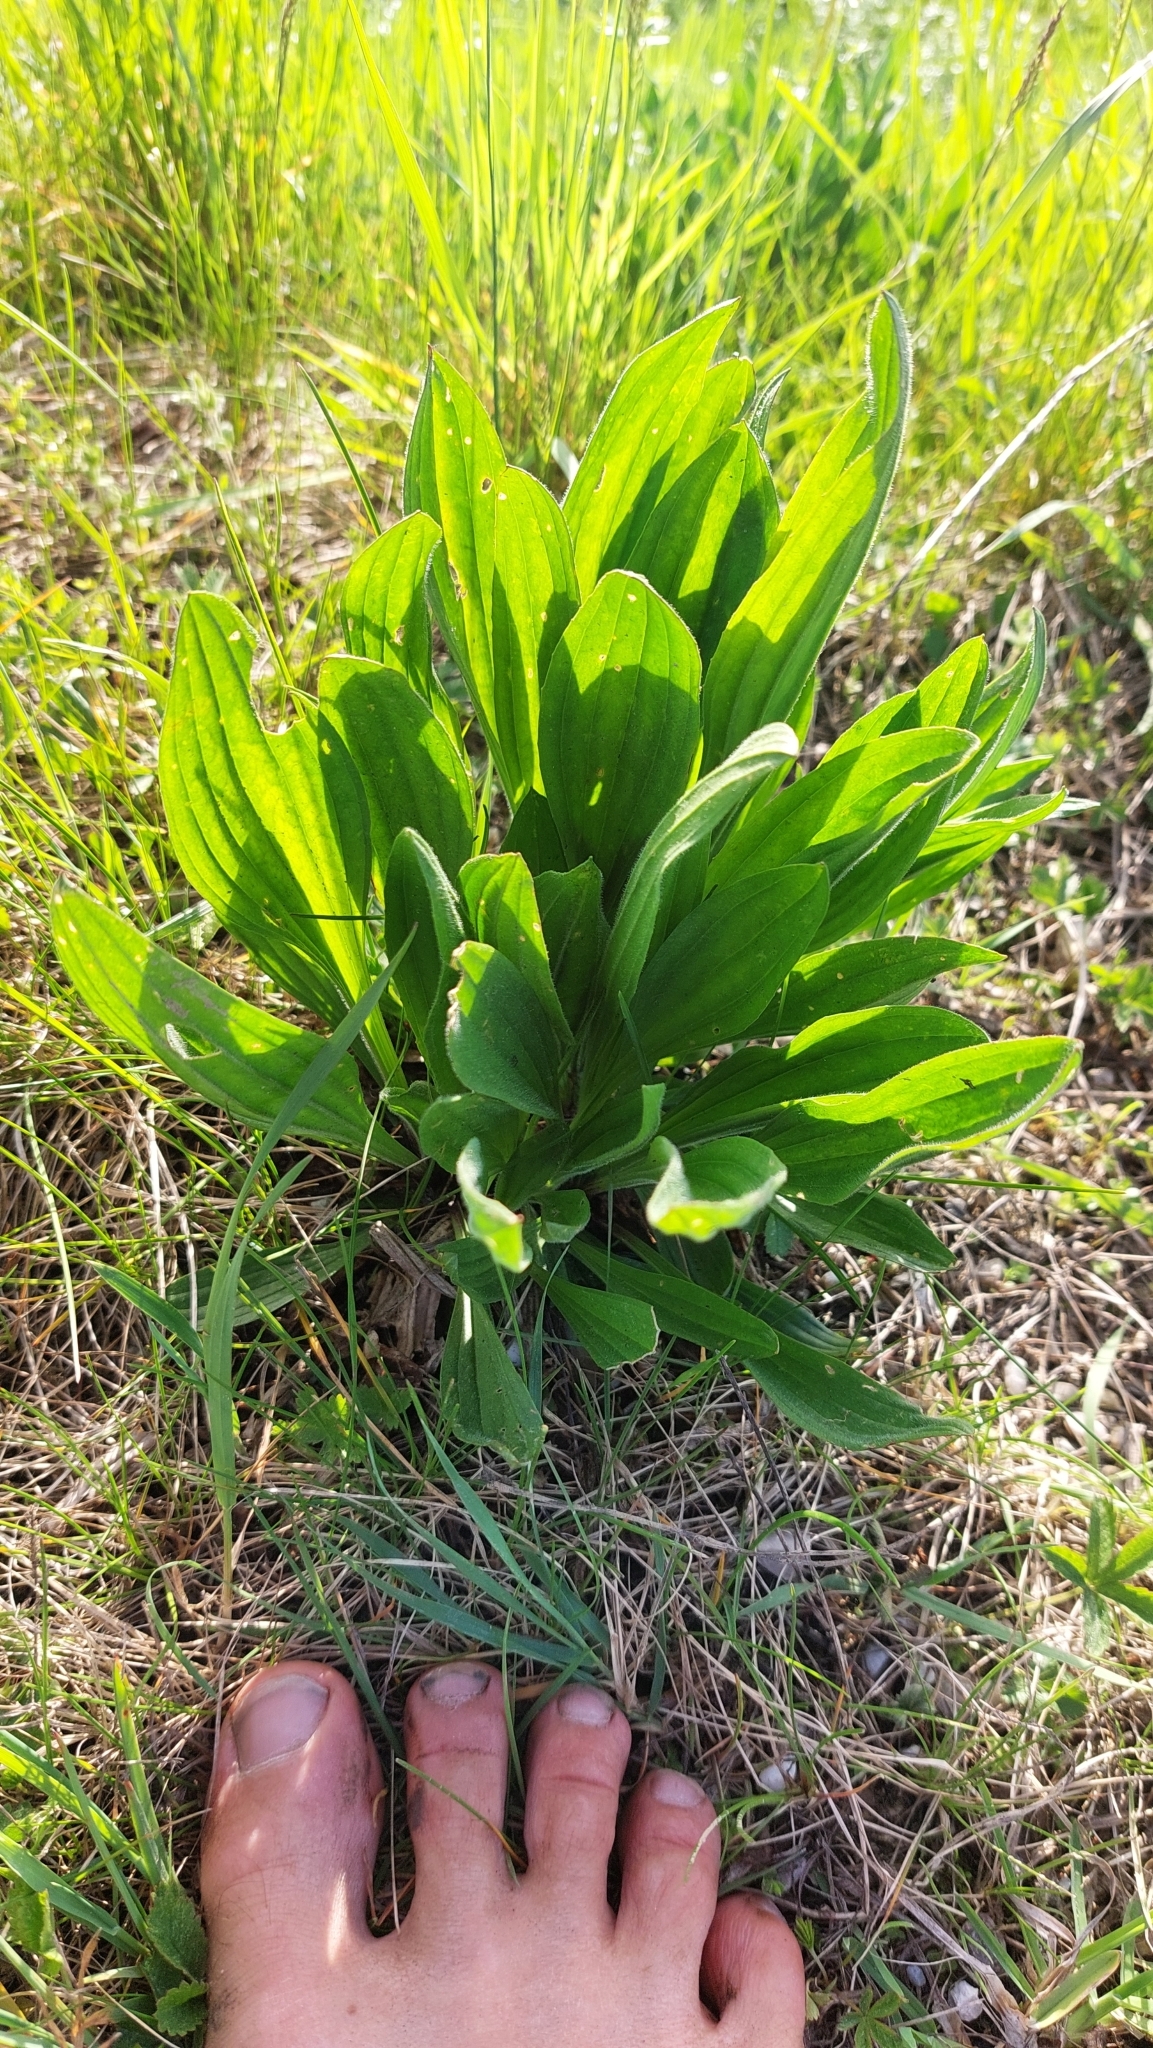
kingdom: Plantae
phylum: Tracheophyta
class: Magnoliopsida
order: Lamiales
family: Plantaginaceae
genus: Plantago
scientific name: Plantago lanceolata
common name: Ribwort plantain
